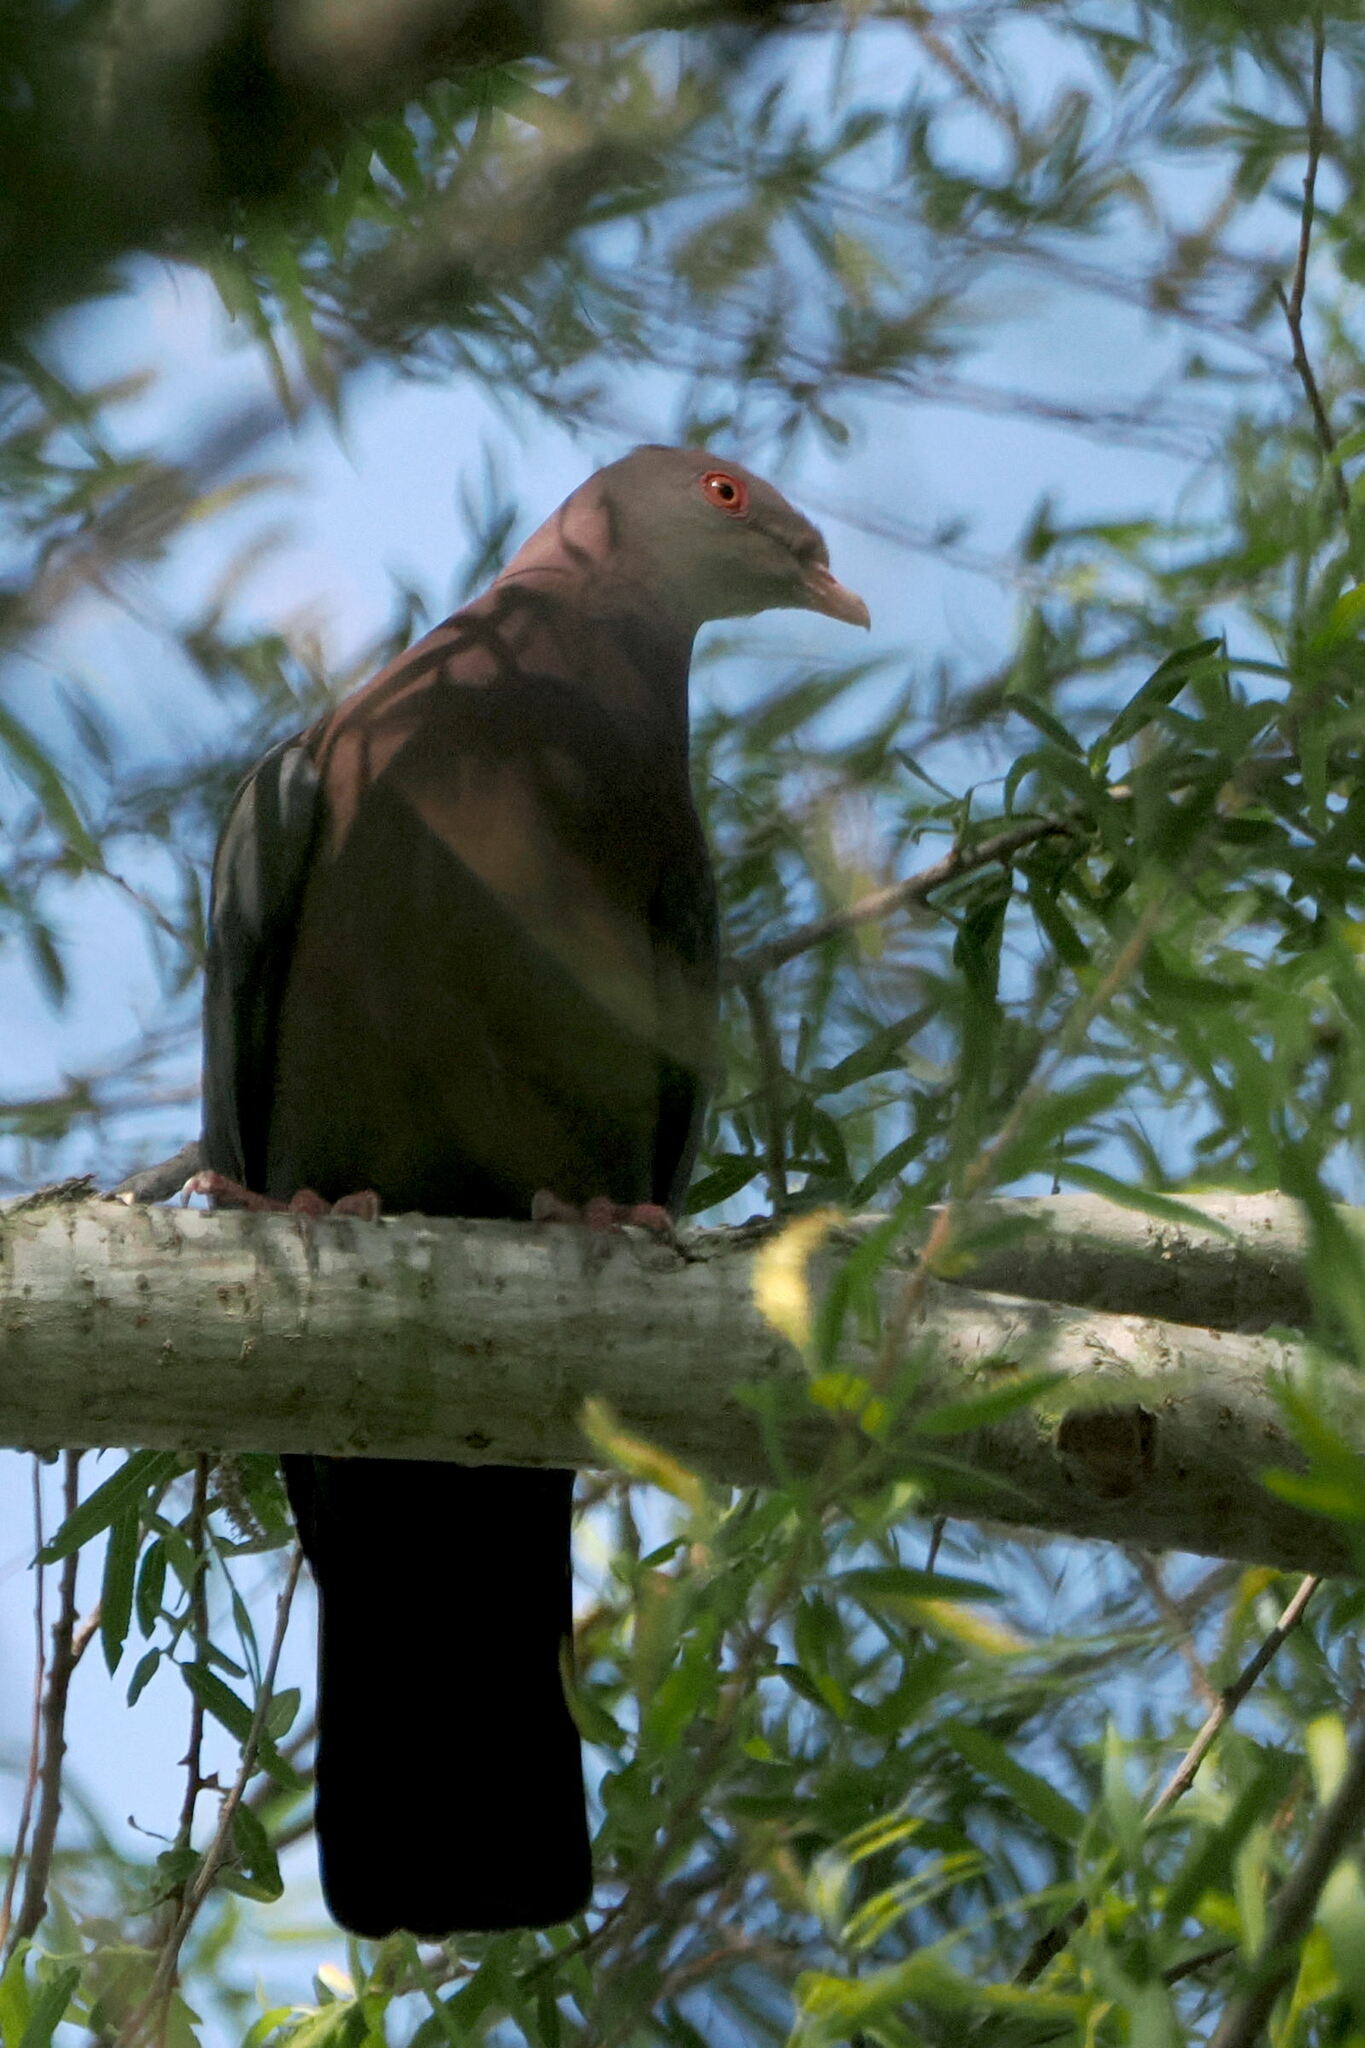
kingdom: Animalia
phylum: Chordata
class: Aves
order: Columbiformes
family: Columbidae
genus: Patagioenas
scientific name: Patagioenas flavirostris
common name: Red-billed pigeon
